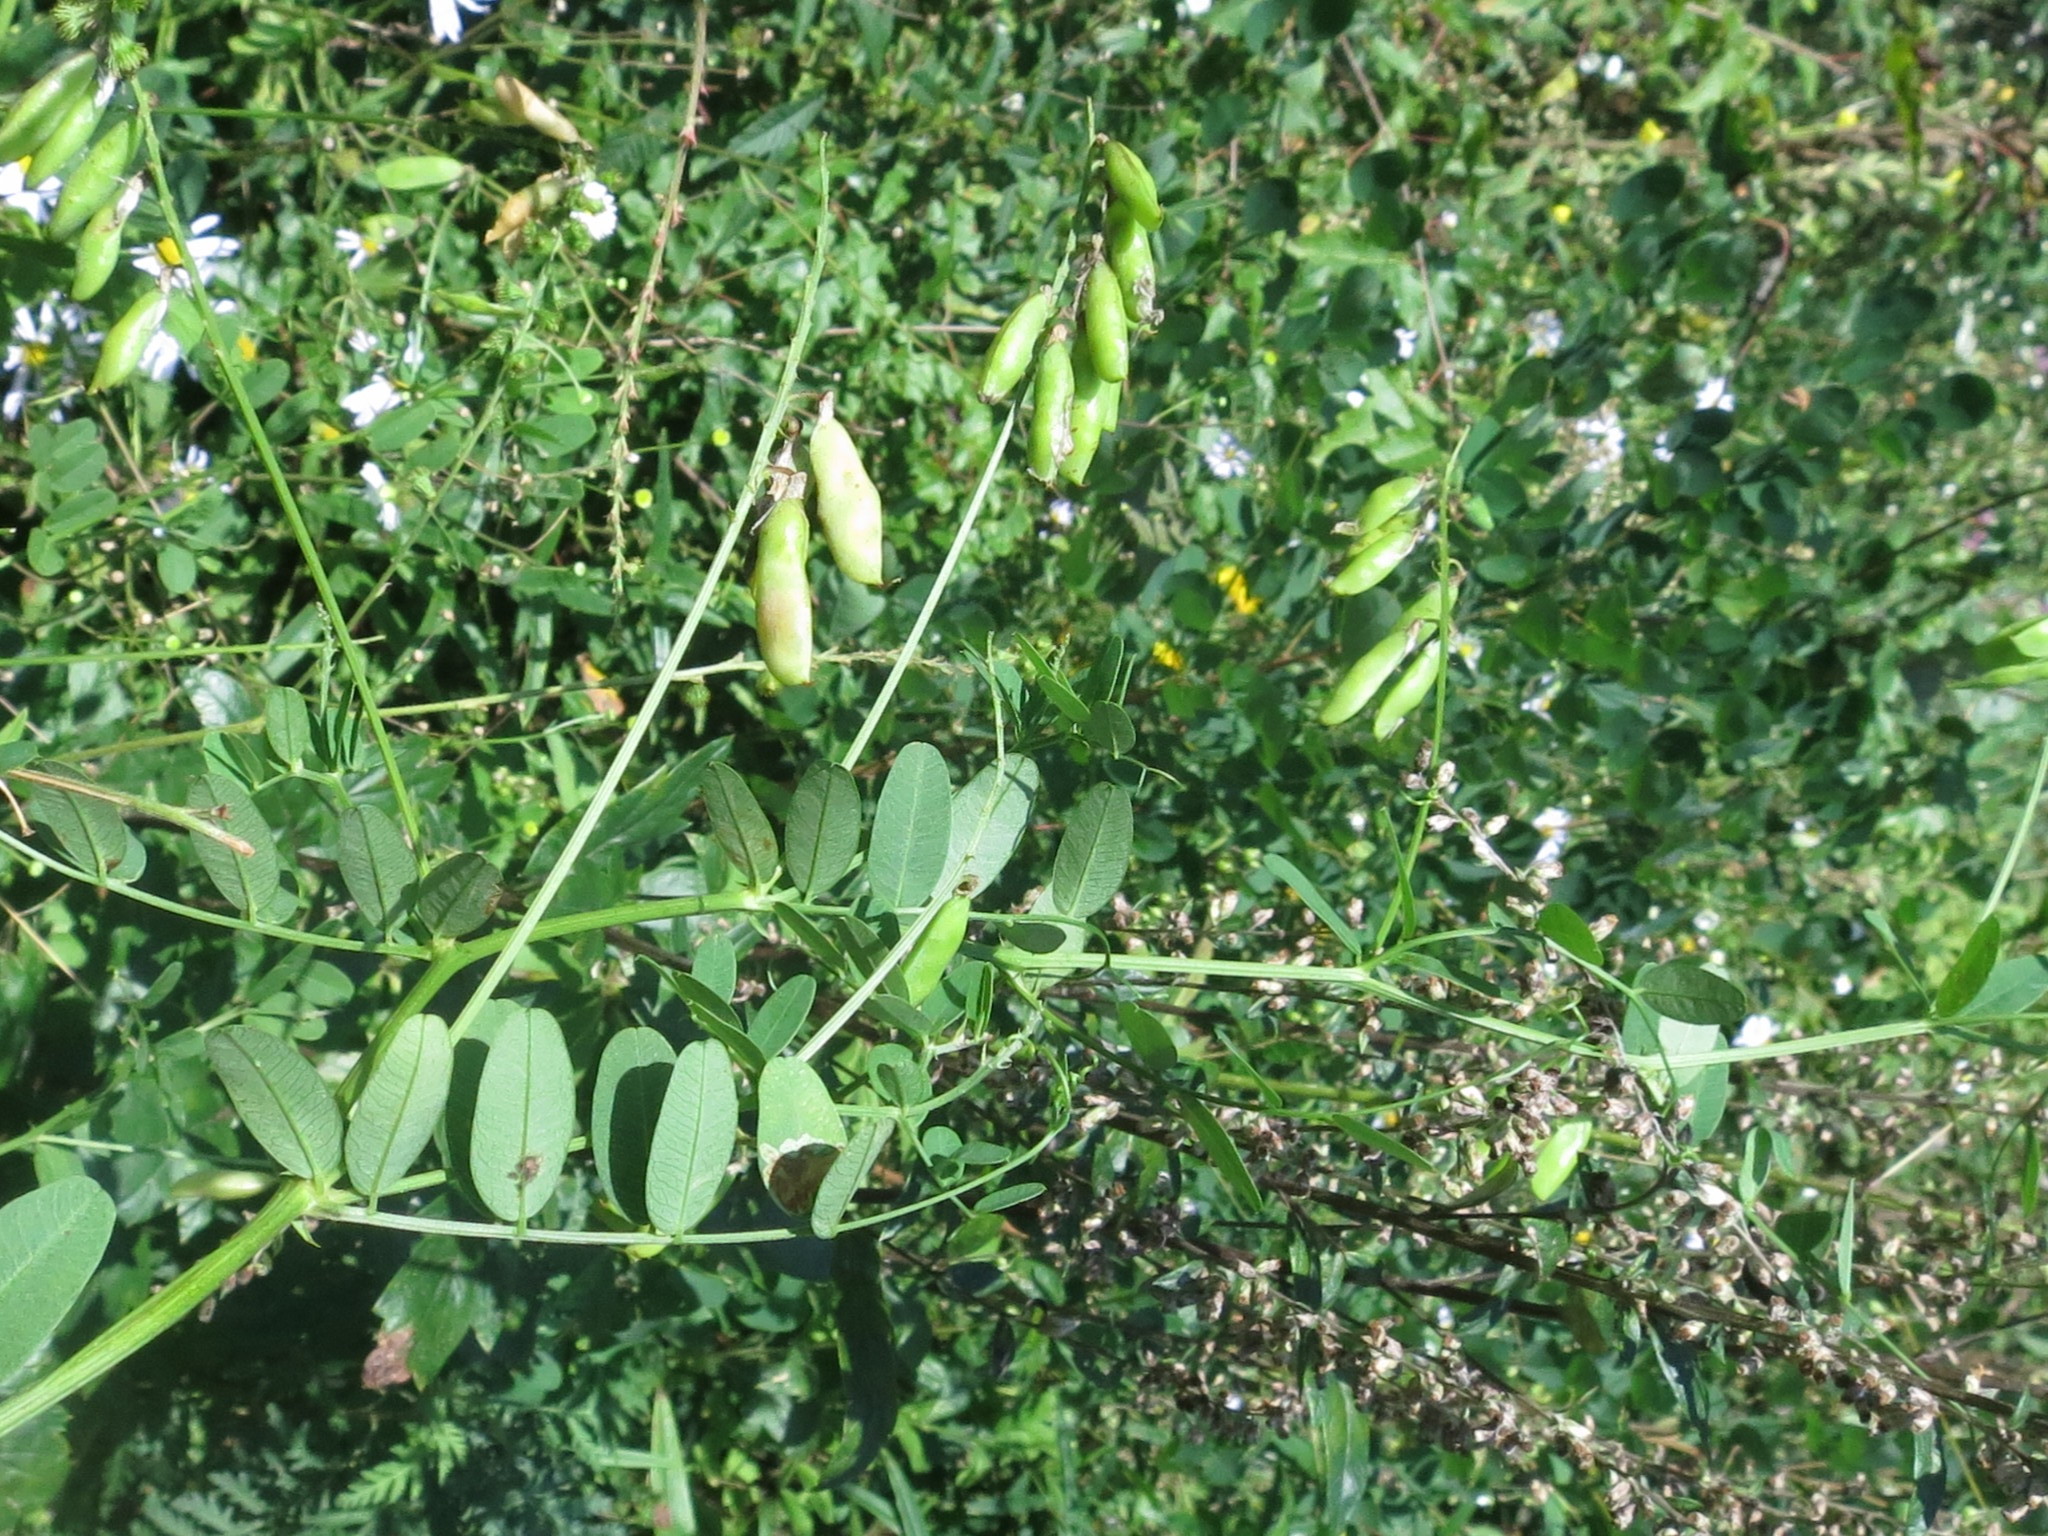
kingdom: Plantae
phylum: Tracheophyta
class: Magnoliopsida
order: Fabales
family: Fabaceae
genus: Vicia
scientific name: Vicia amurensis
